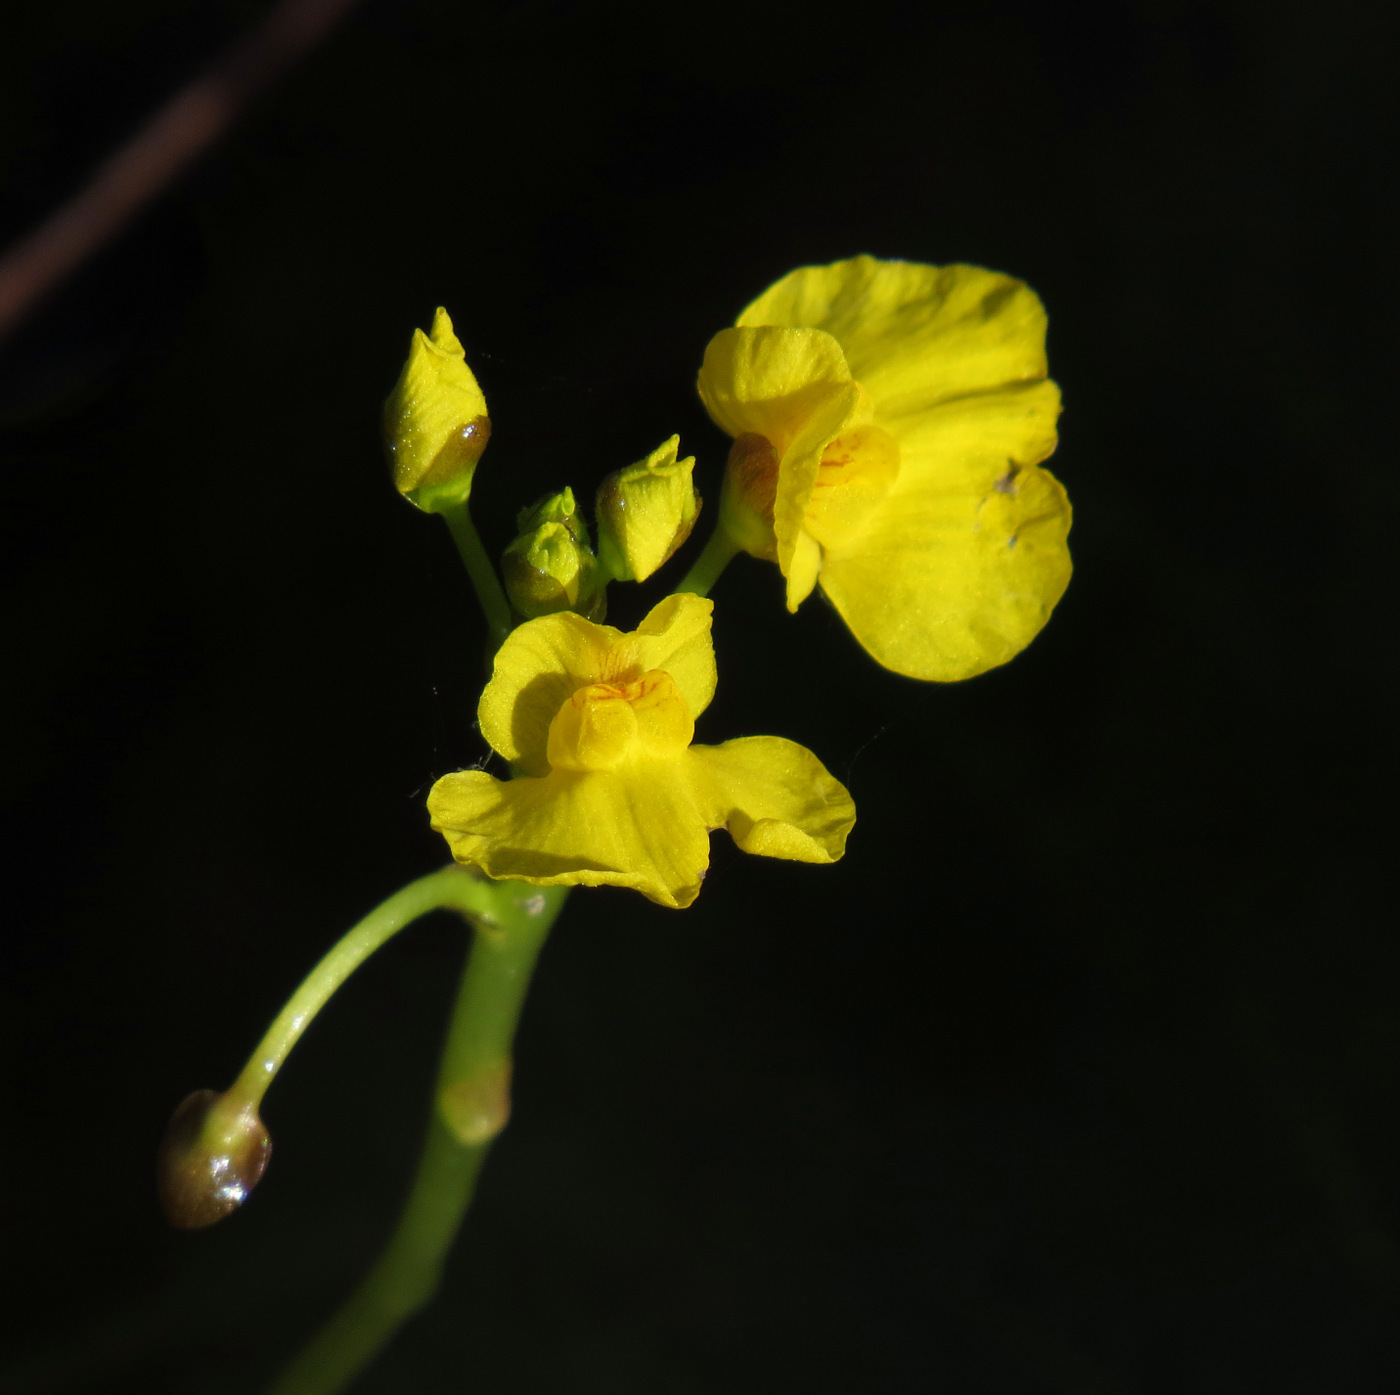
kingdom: Plantae
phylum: Tracheophyta
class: Magnoliopsida
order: Lamiales
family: Lentibulariaceae
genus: Utricularia
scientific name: Utricularia foliosa
